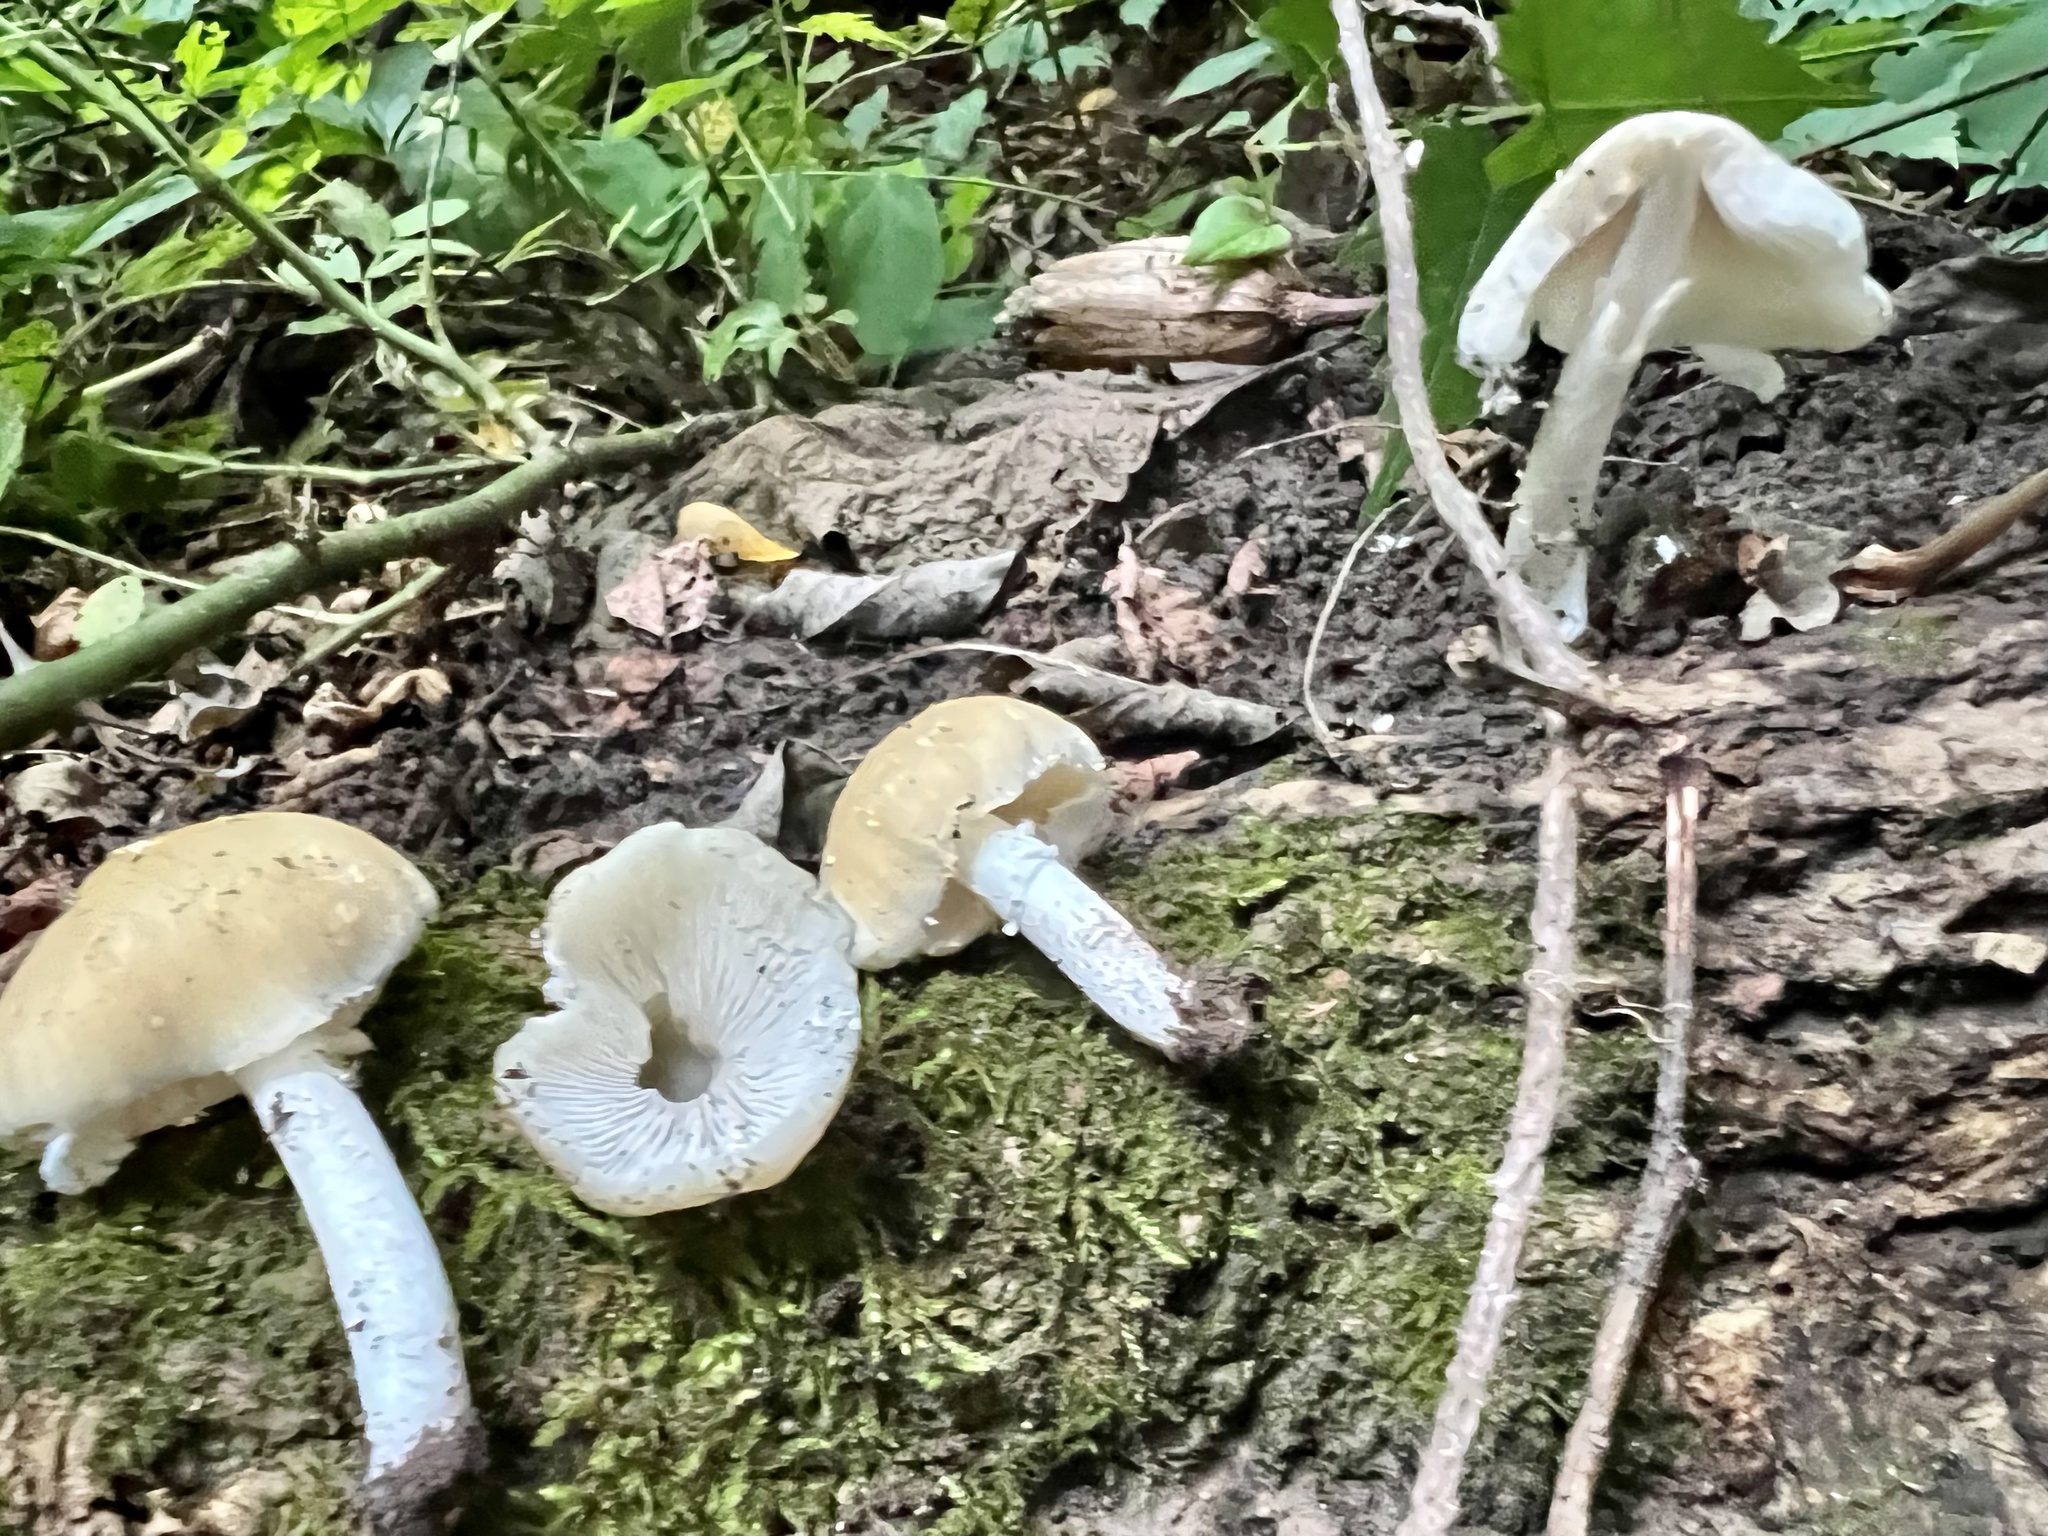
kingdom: Fungi
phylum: Basidiomycota
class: Agaricomycetes
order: Agaricales
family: Psathyrellaceae
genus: Candolleomyces
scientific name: Candolleomyces candolleanus
